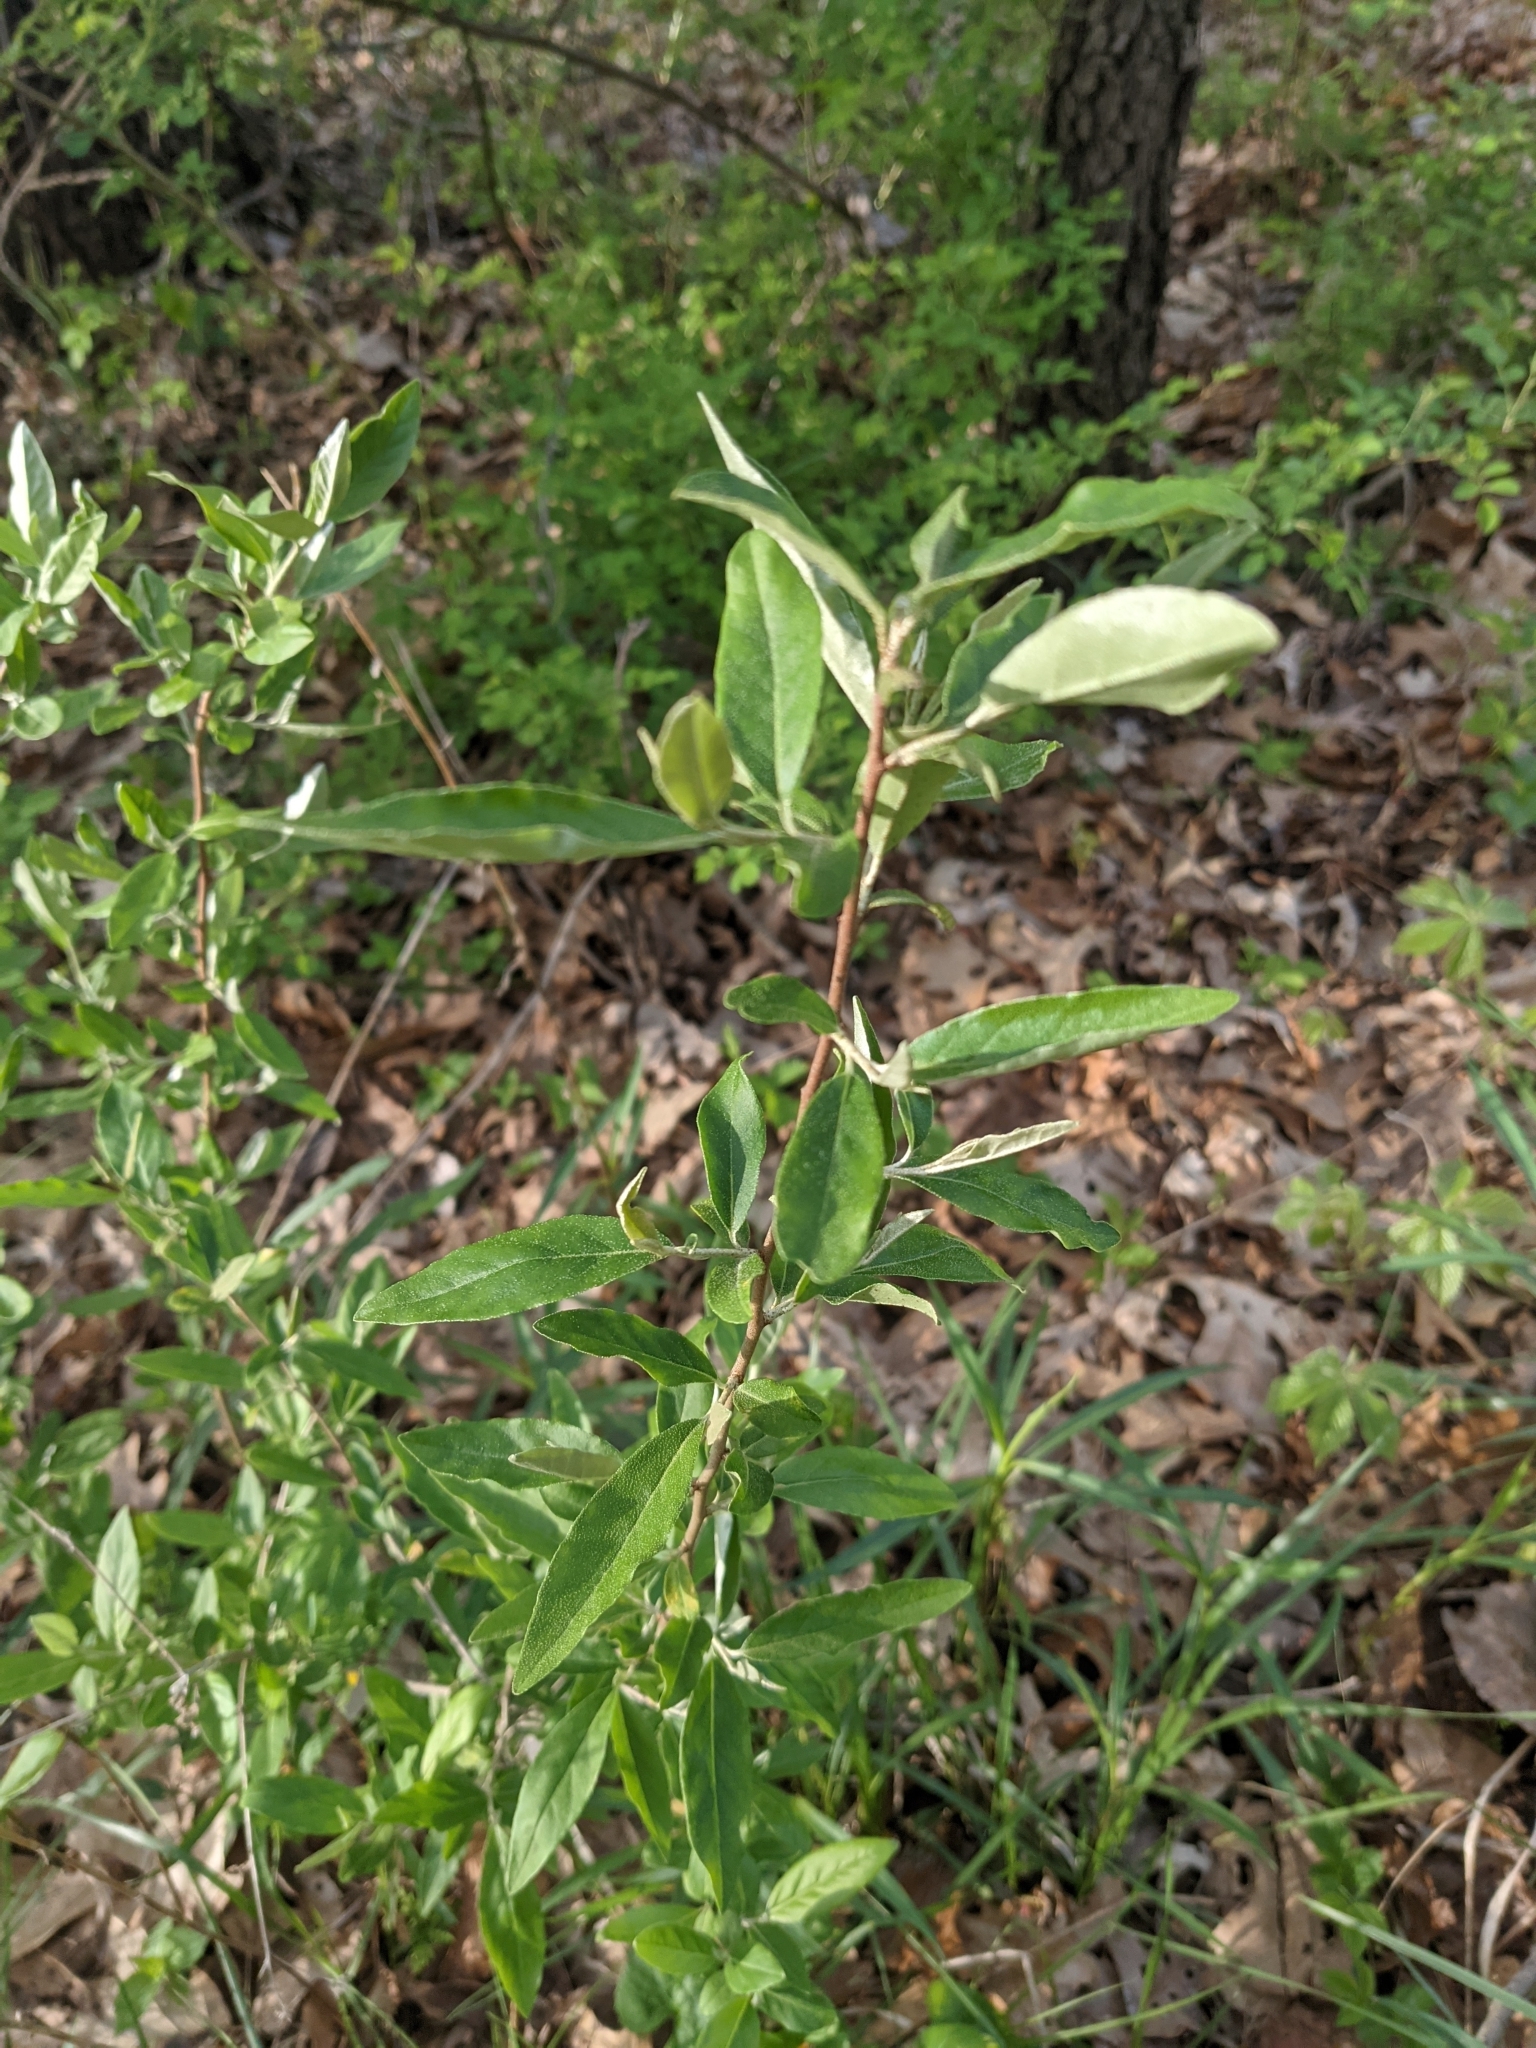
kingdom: Plantae
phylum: Tracheophyta
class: Magnoliopsida
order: Rosales
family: Elaeagnaceae
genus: Elaeagnus
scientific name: Elaeagnus umbellata
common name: Autumn olive
